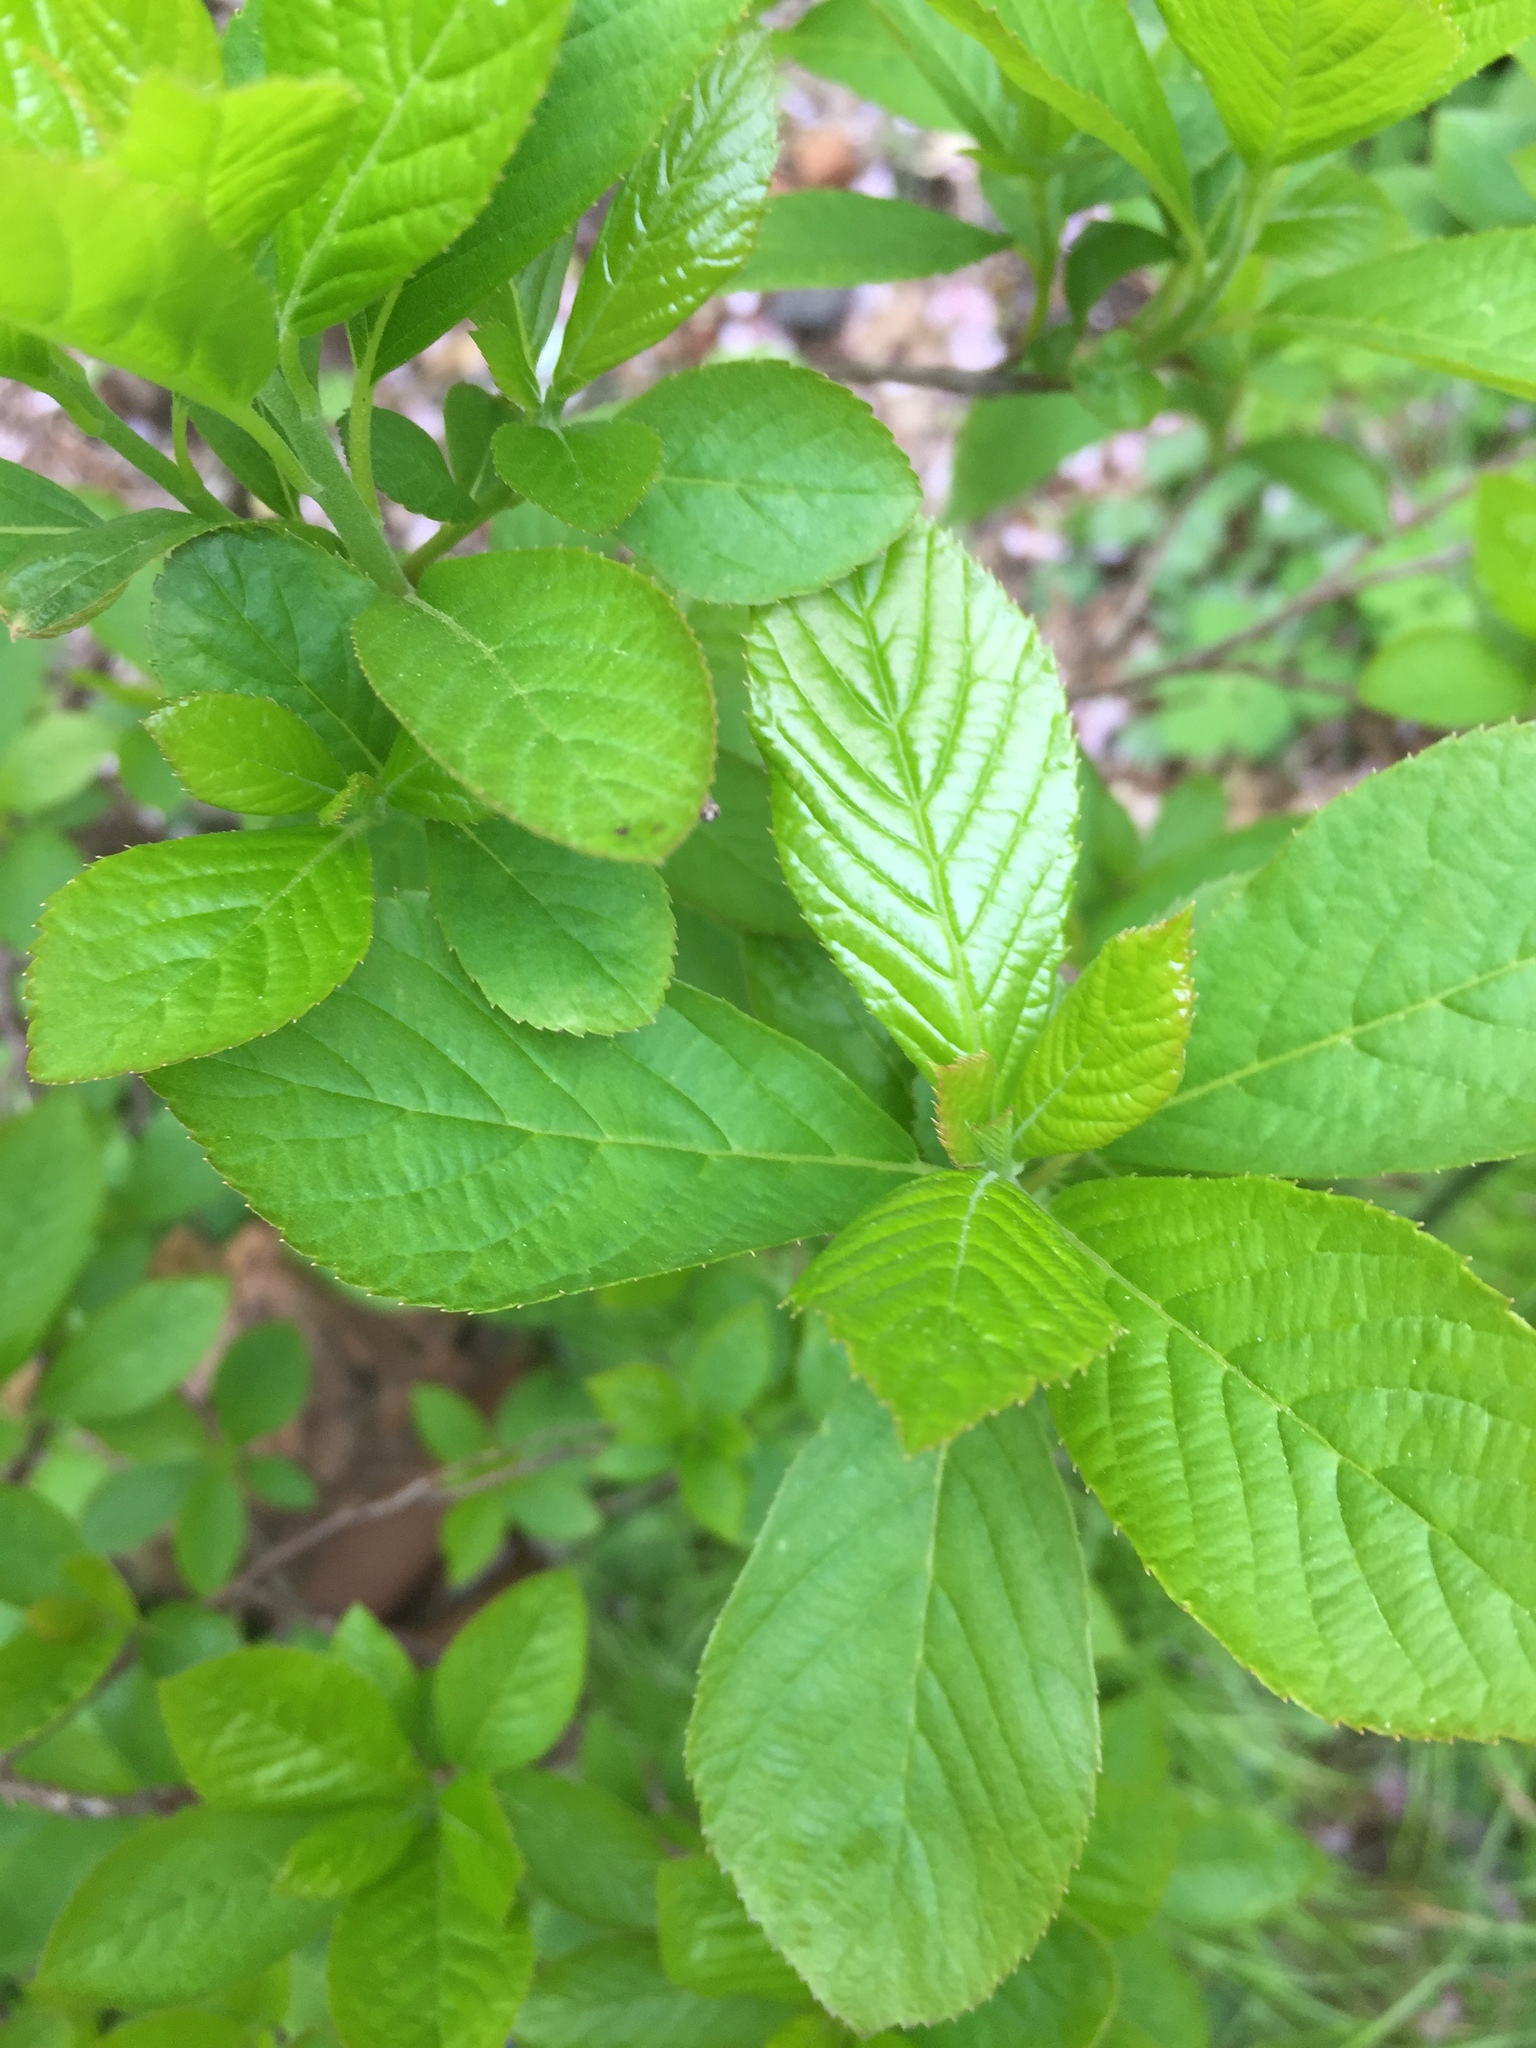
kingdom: Plantae
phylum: Tracheophyta
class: Magnoliopsida
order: Ericales
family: Clethraceae
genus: Clethra
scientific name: Clethra alnifolia
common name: Sweet pepperbush
